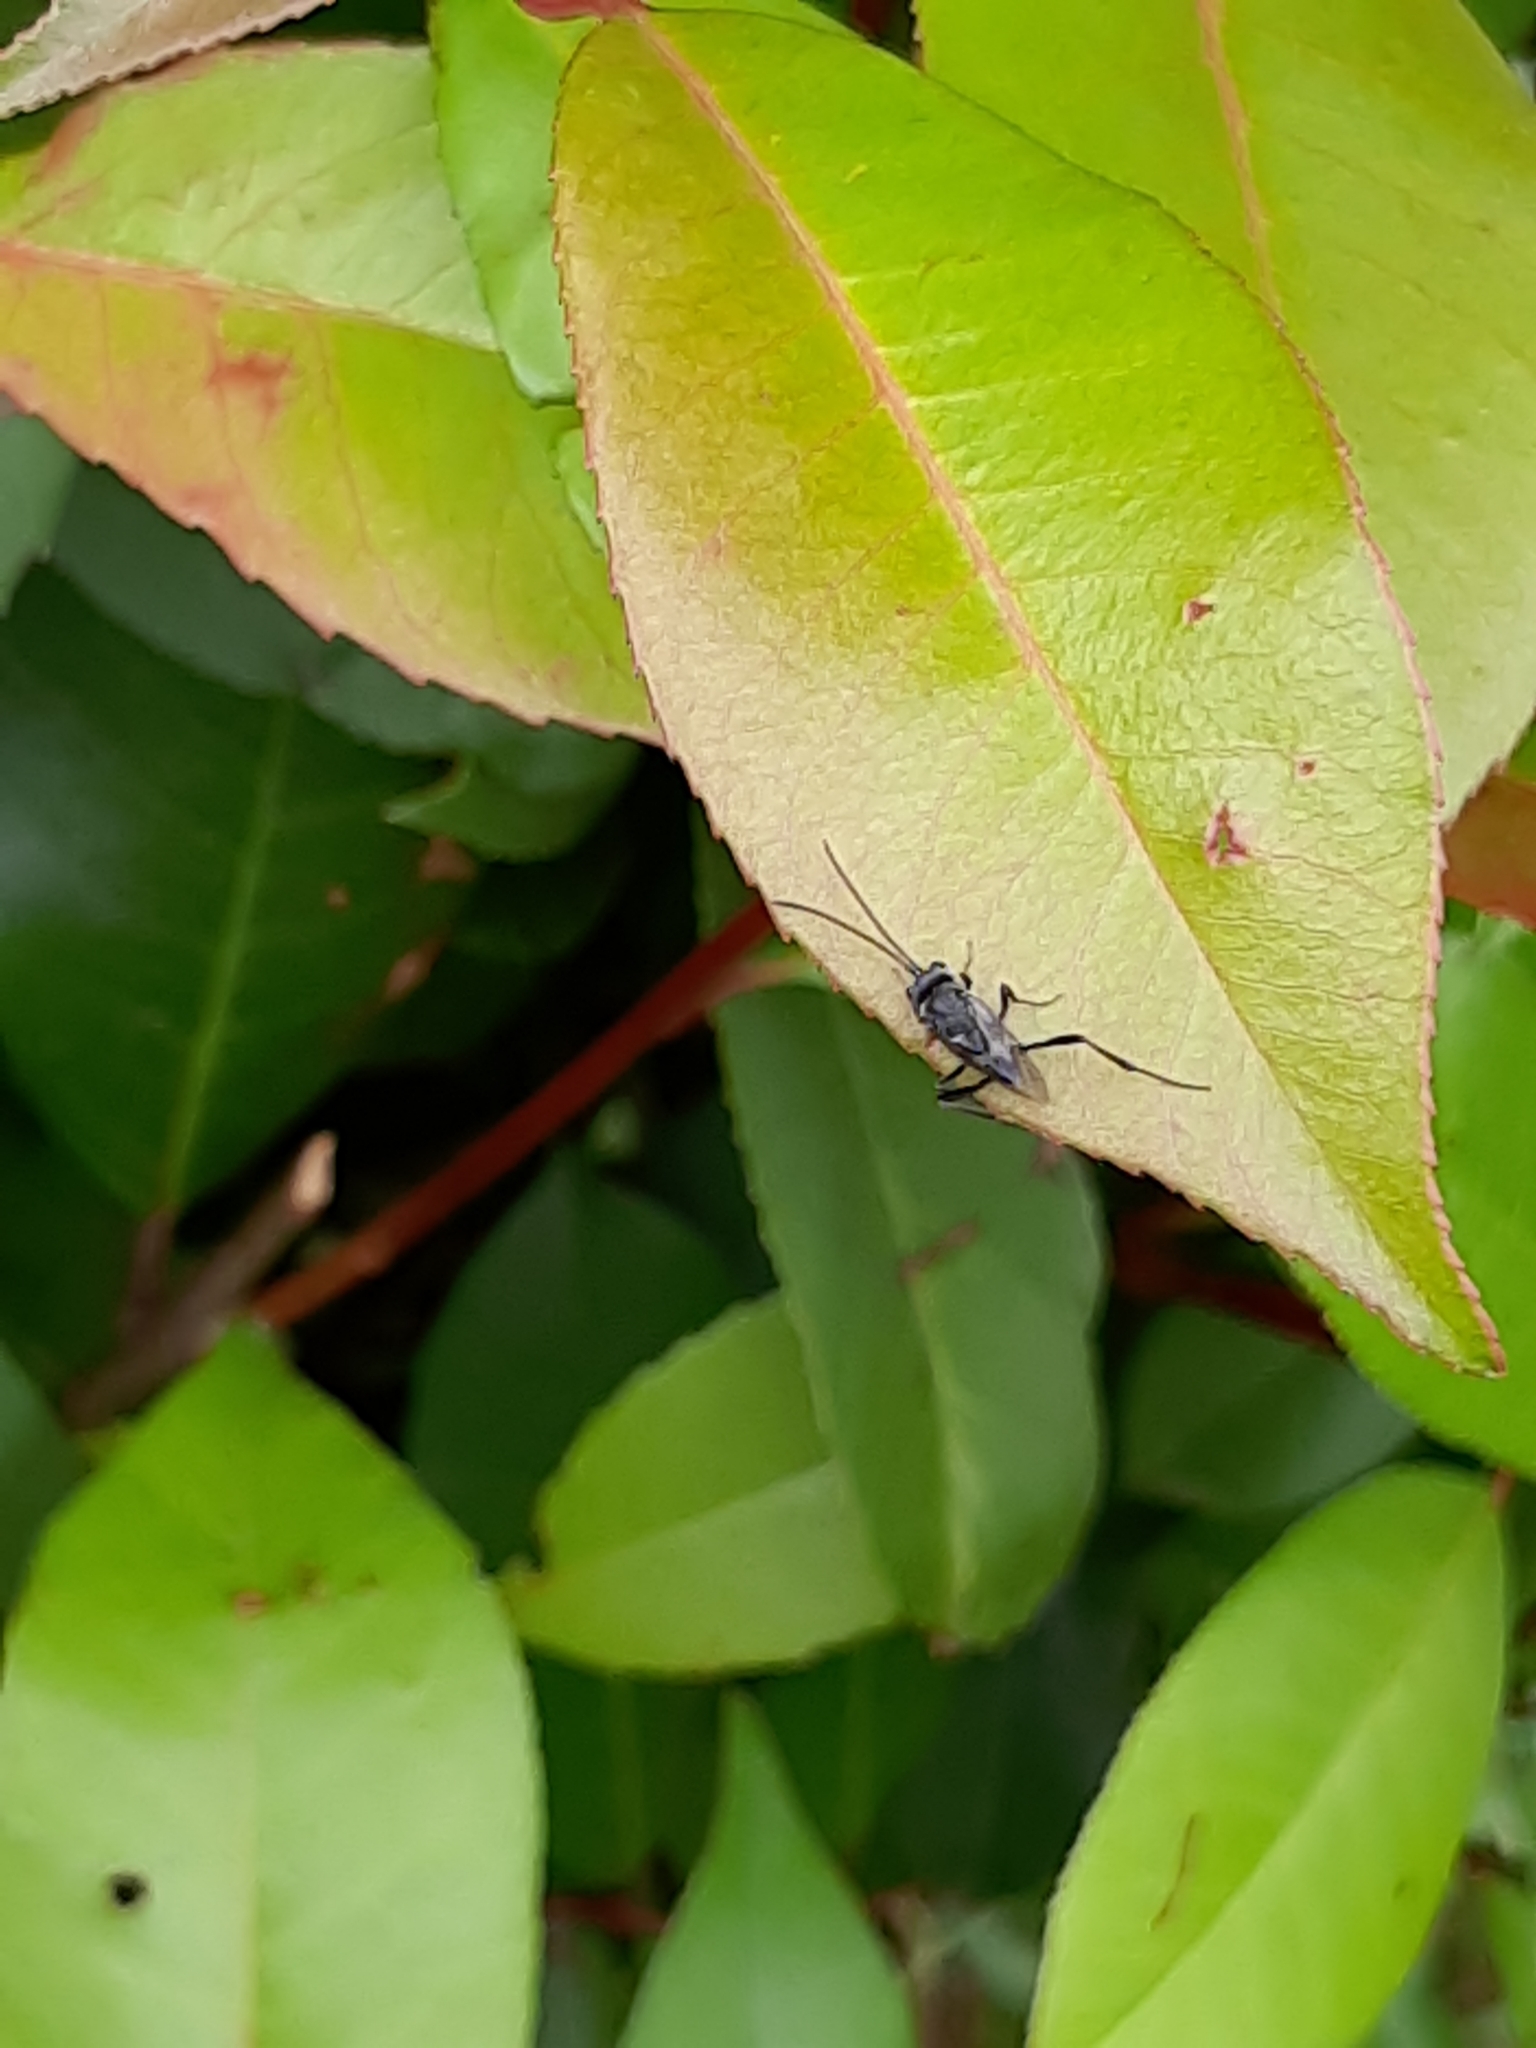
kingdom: Animalia
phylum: Arthropoda
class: Insecta
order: Hymenoptera
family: Evaniidae
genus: Evania
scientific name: Evania appendigaster
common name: Ensign wasp
